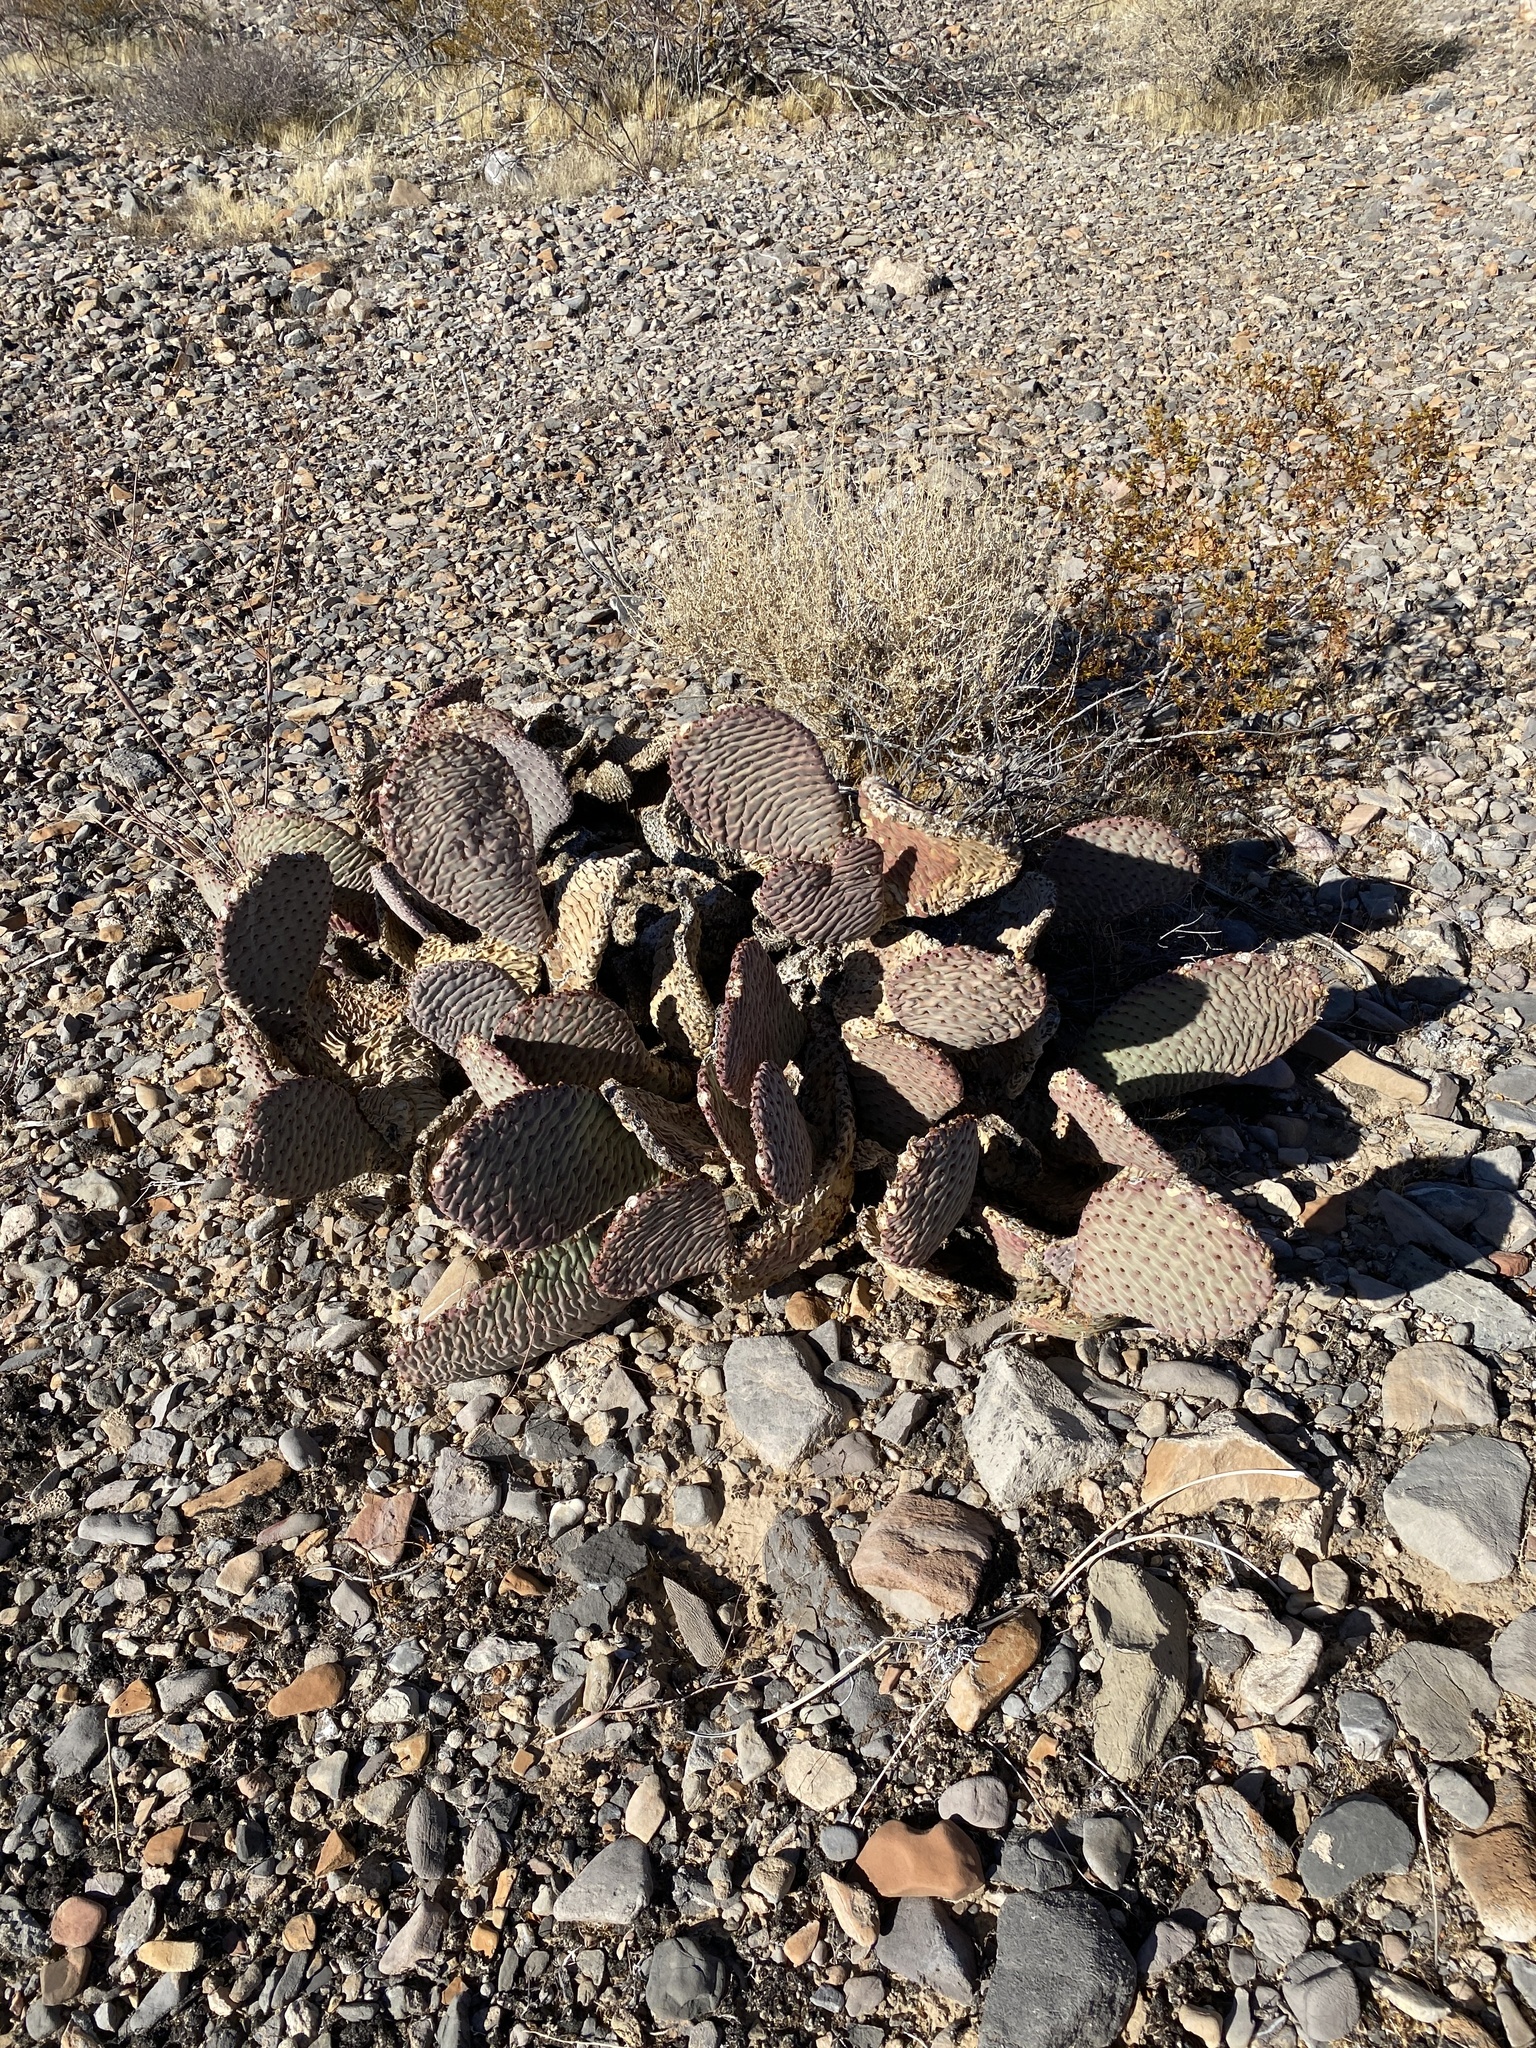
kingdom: Plantae
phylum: Tracheophyta
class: Magnoliopsida
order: Caryophyllales
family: Cactaceae
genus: Opuntia
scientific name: Opuntia basilaris
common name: Beavertail prickly-pear
